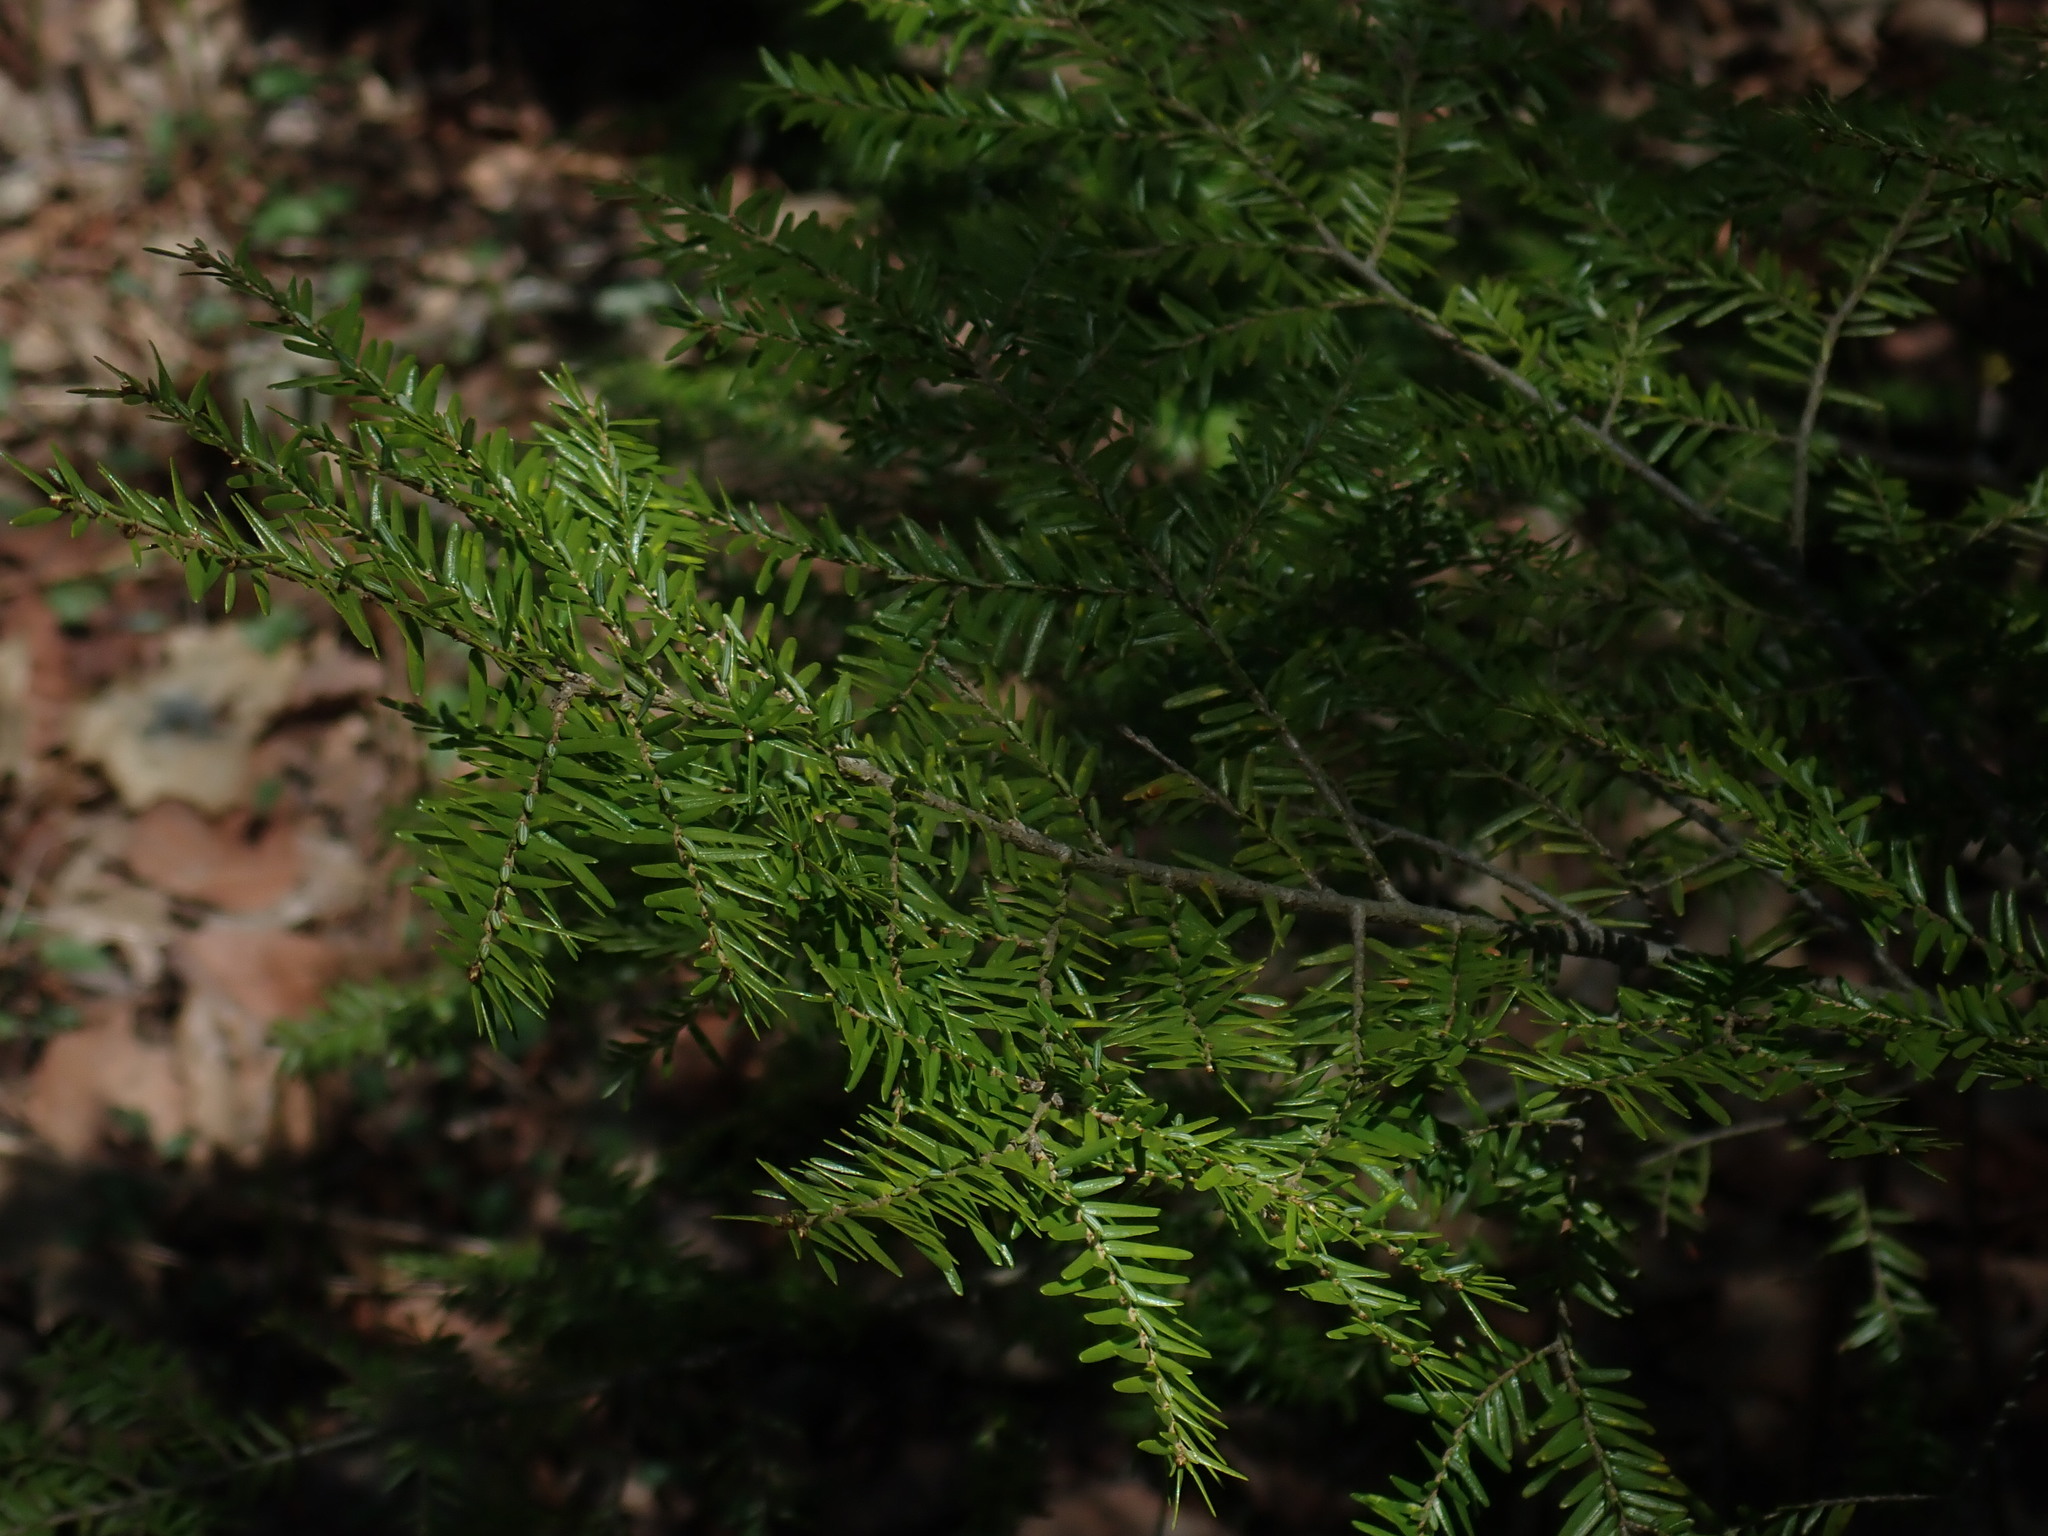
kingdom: Plantae
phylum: Tracheophyta
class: Pinopsida
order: Pinales
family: Pinaceae
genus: Tsuga
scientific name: Tsuga canadensis
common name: Eastern hemlock
